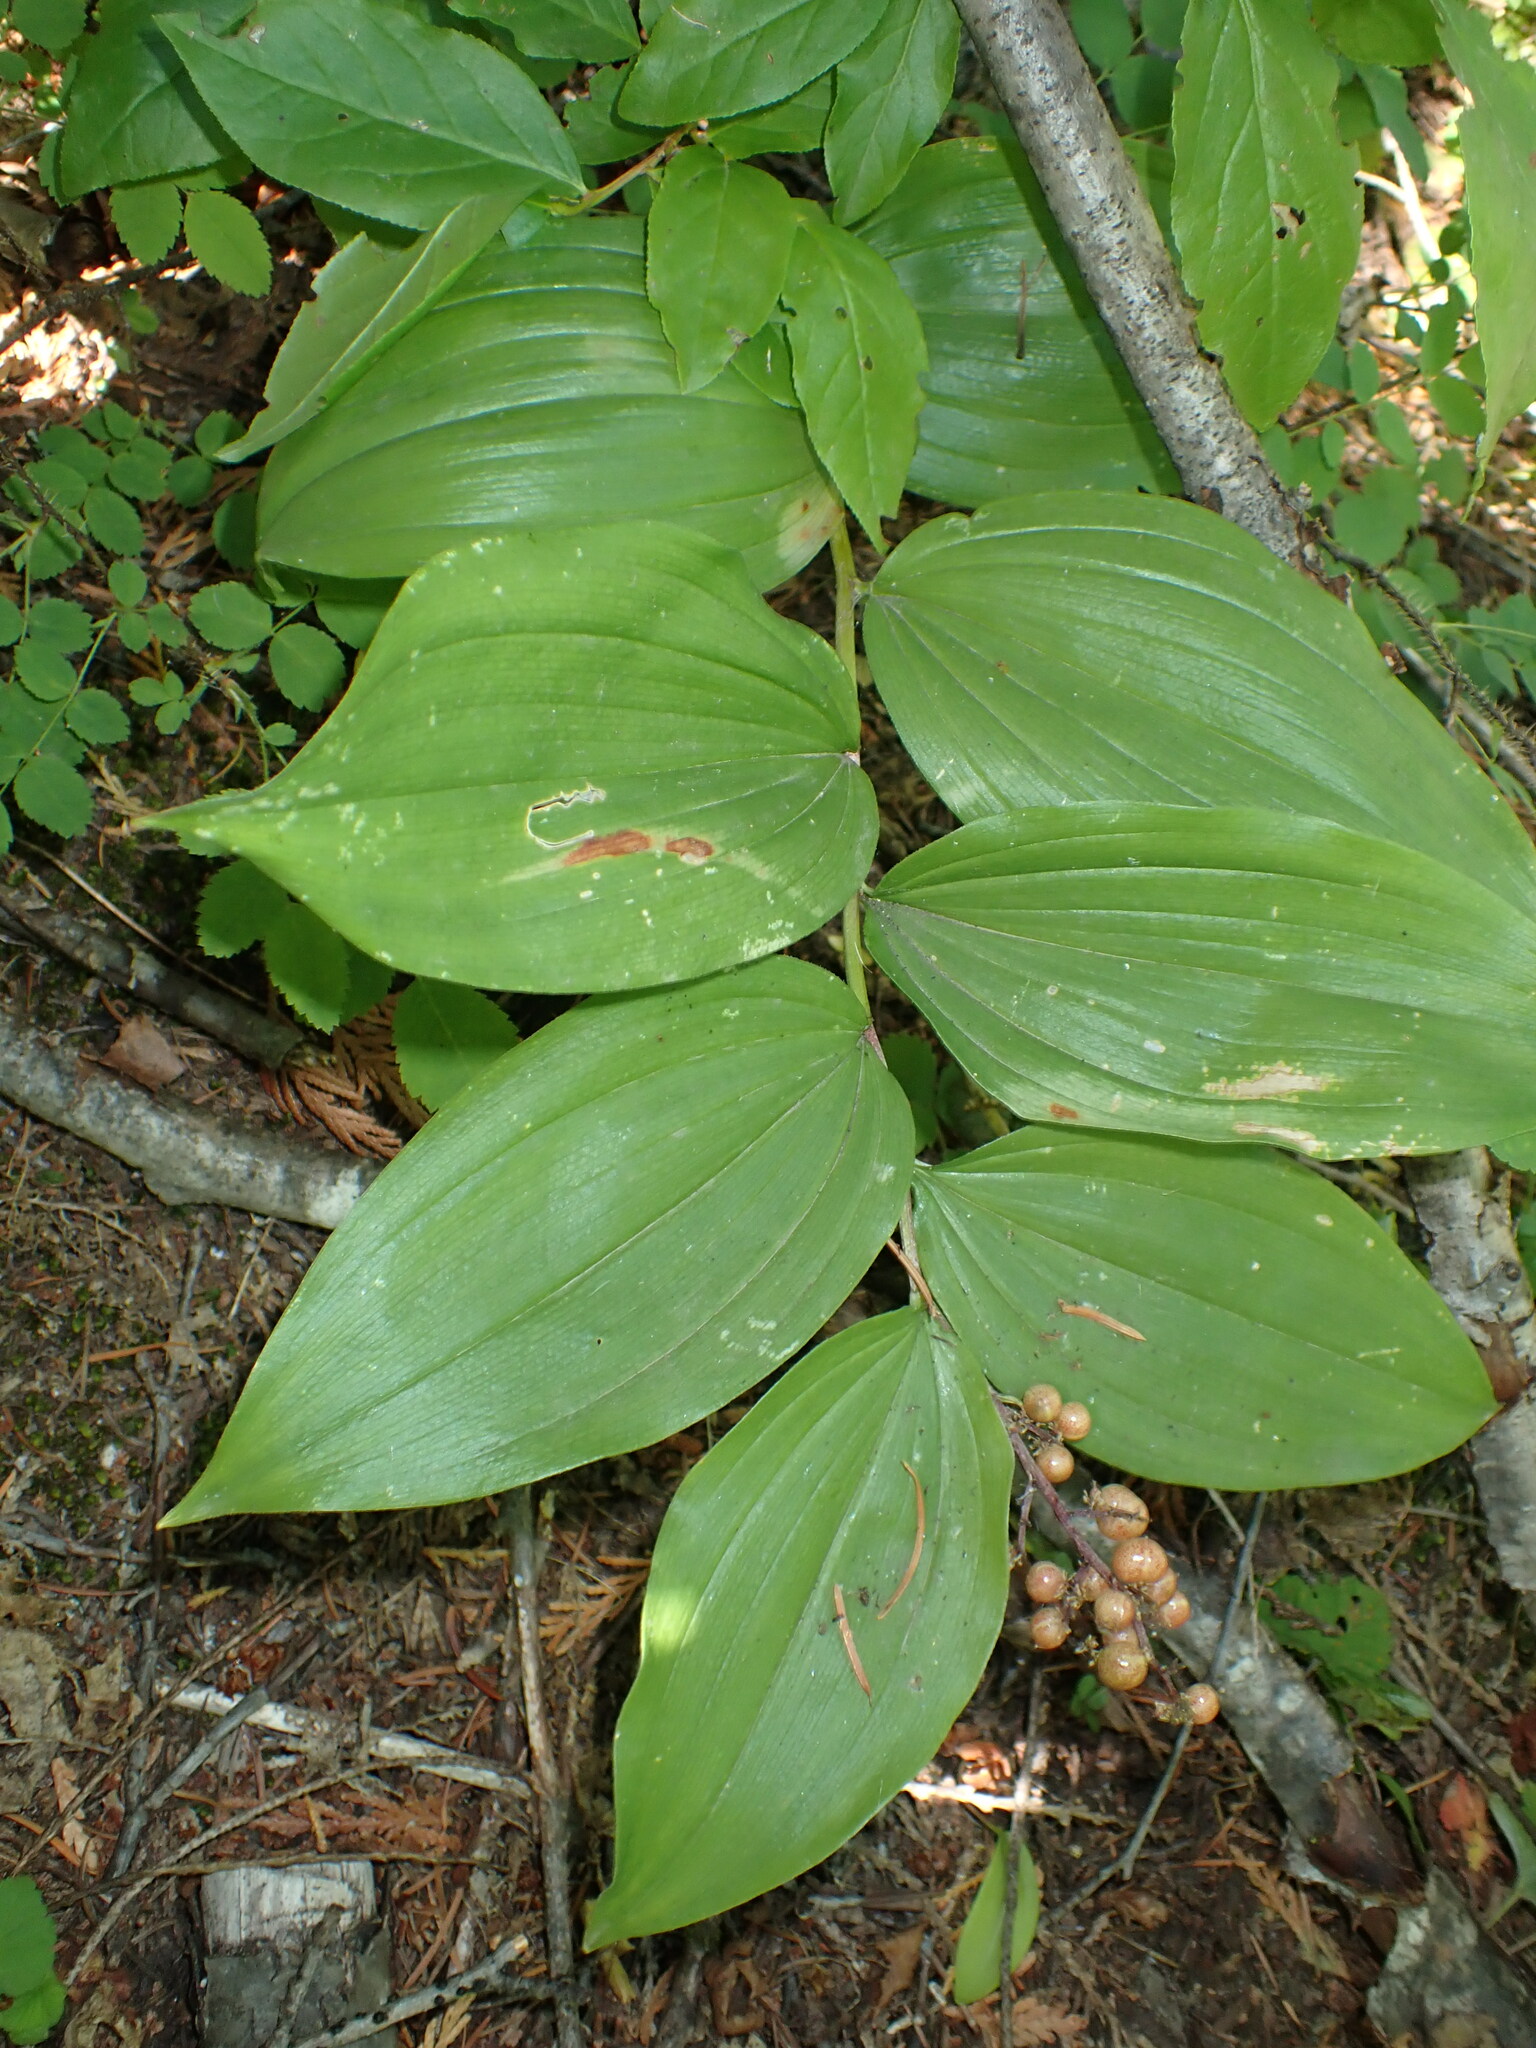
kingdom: Plantae
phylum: Tracheophyta
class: Liliopsida
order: Asparagales
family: Asparagaceae
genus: Maianthemum
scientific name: Maianthemum racemosum
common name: False spikenard
